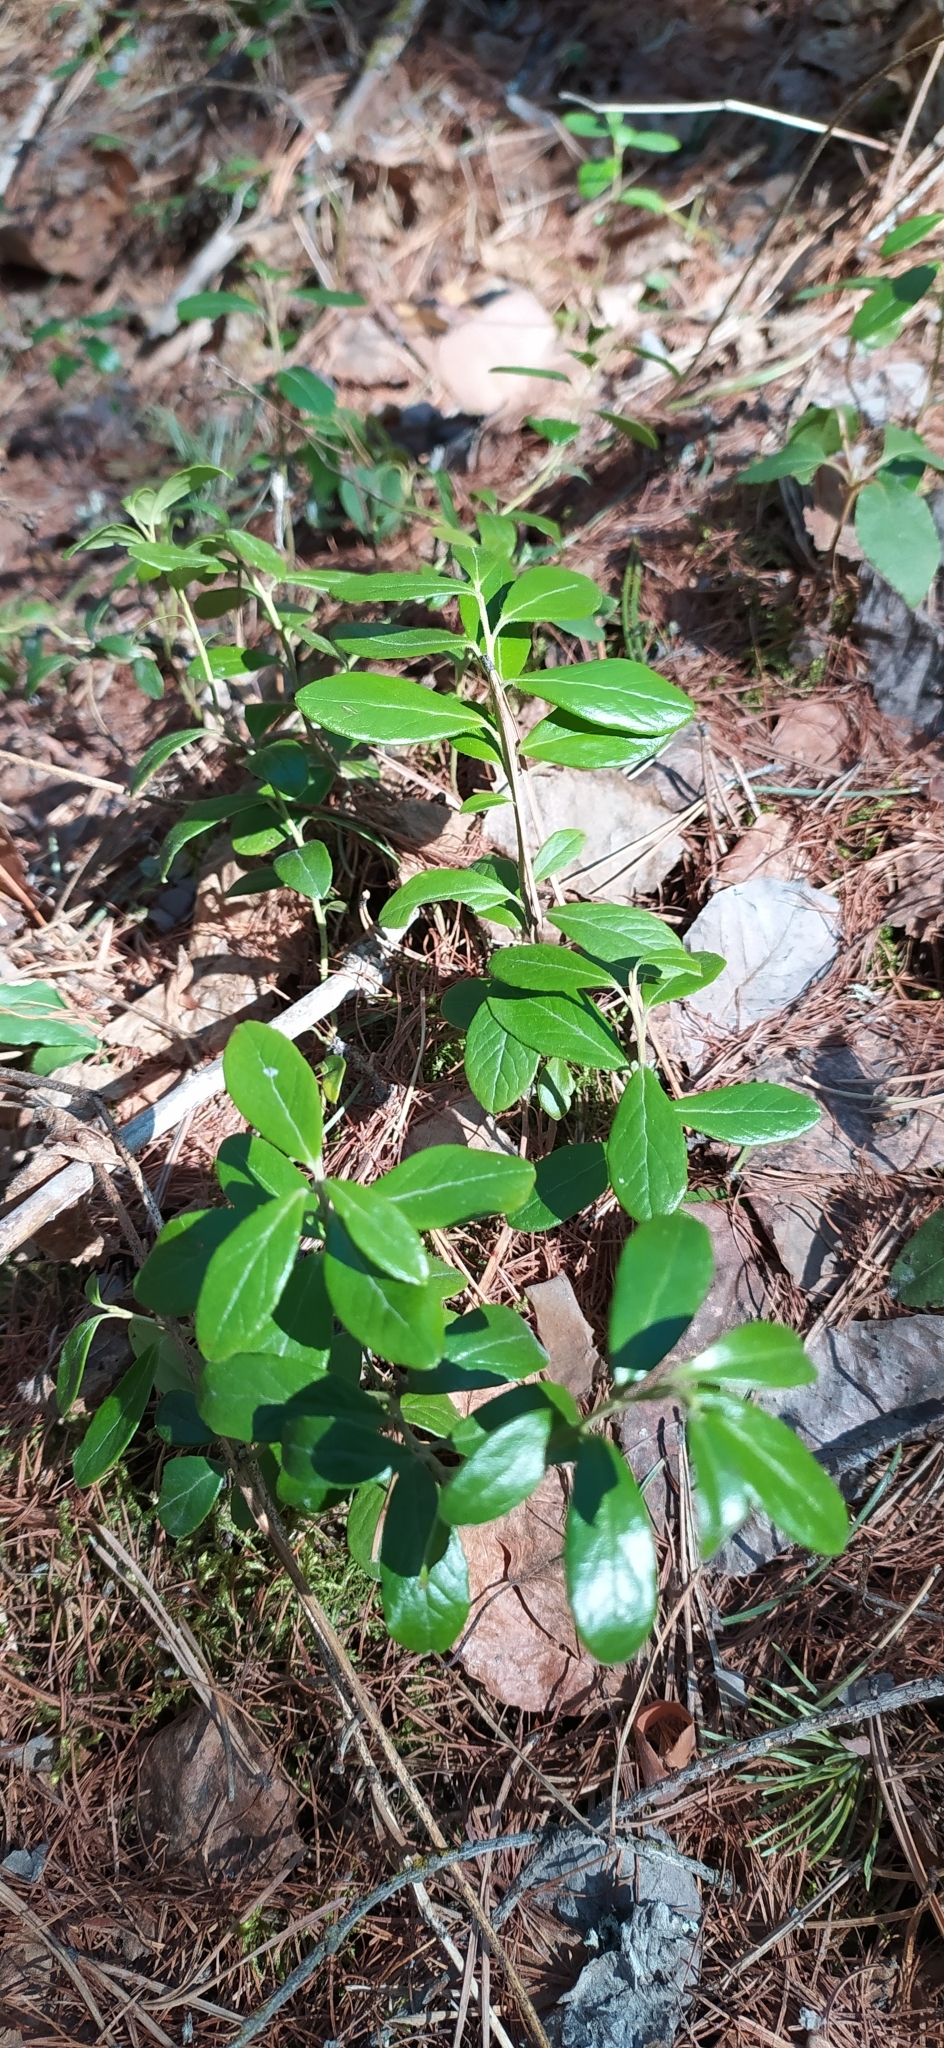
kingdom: Plantae
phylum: Tracheophyta
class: Magnoliopsida
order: Ericales
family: Ericaceae
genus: Vaccinium
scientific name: Vaccinium vitis-idaea
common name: Cowberry
